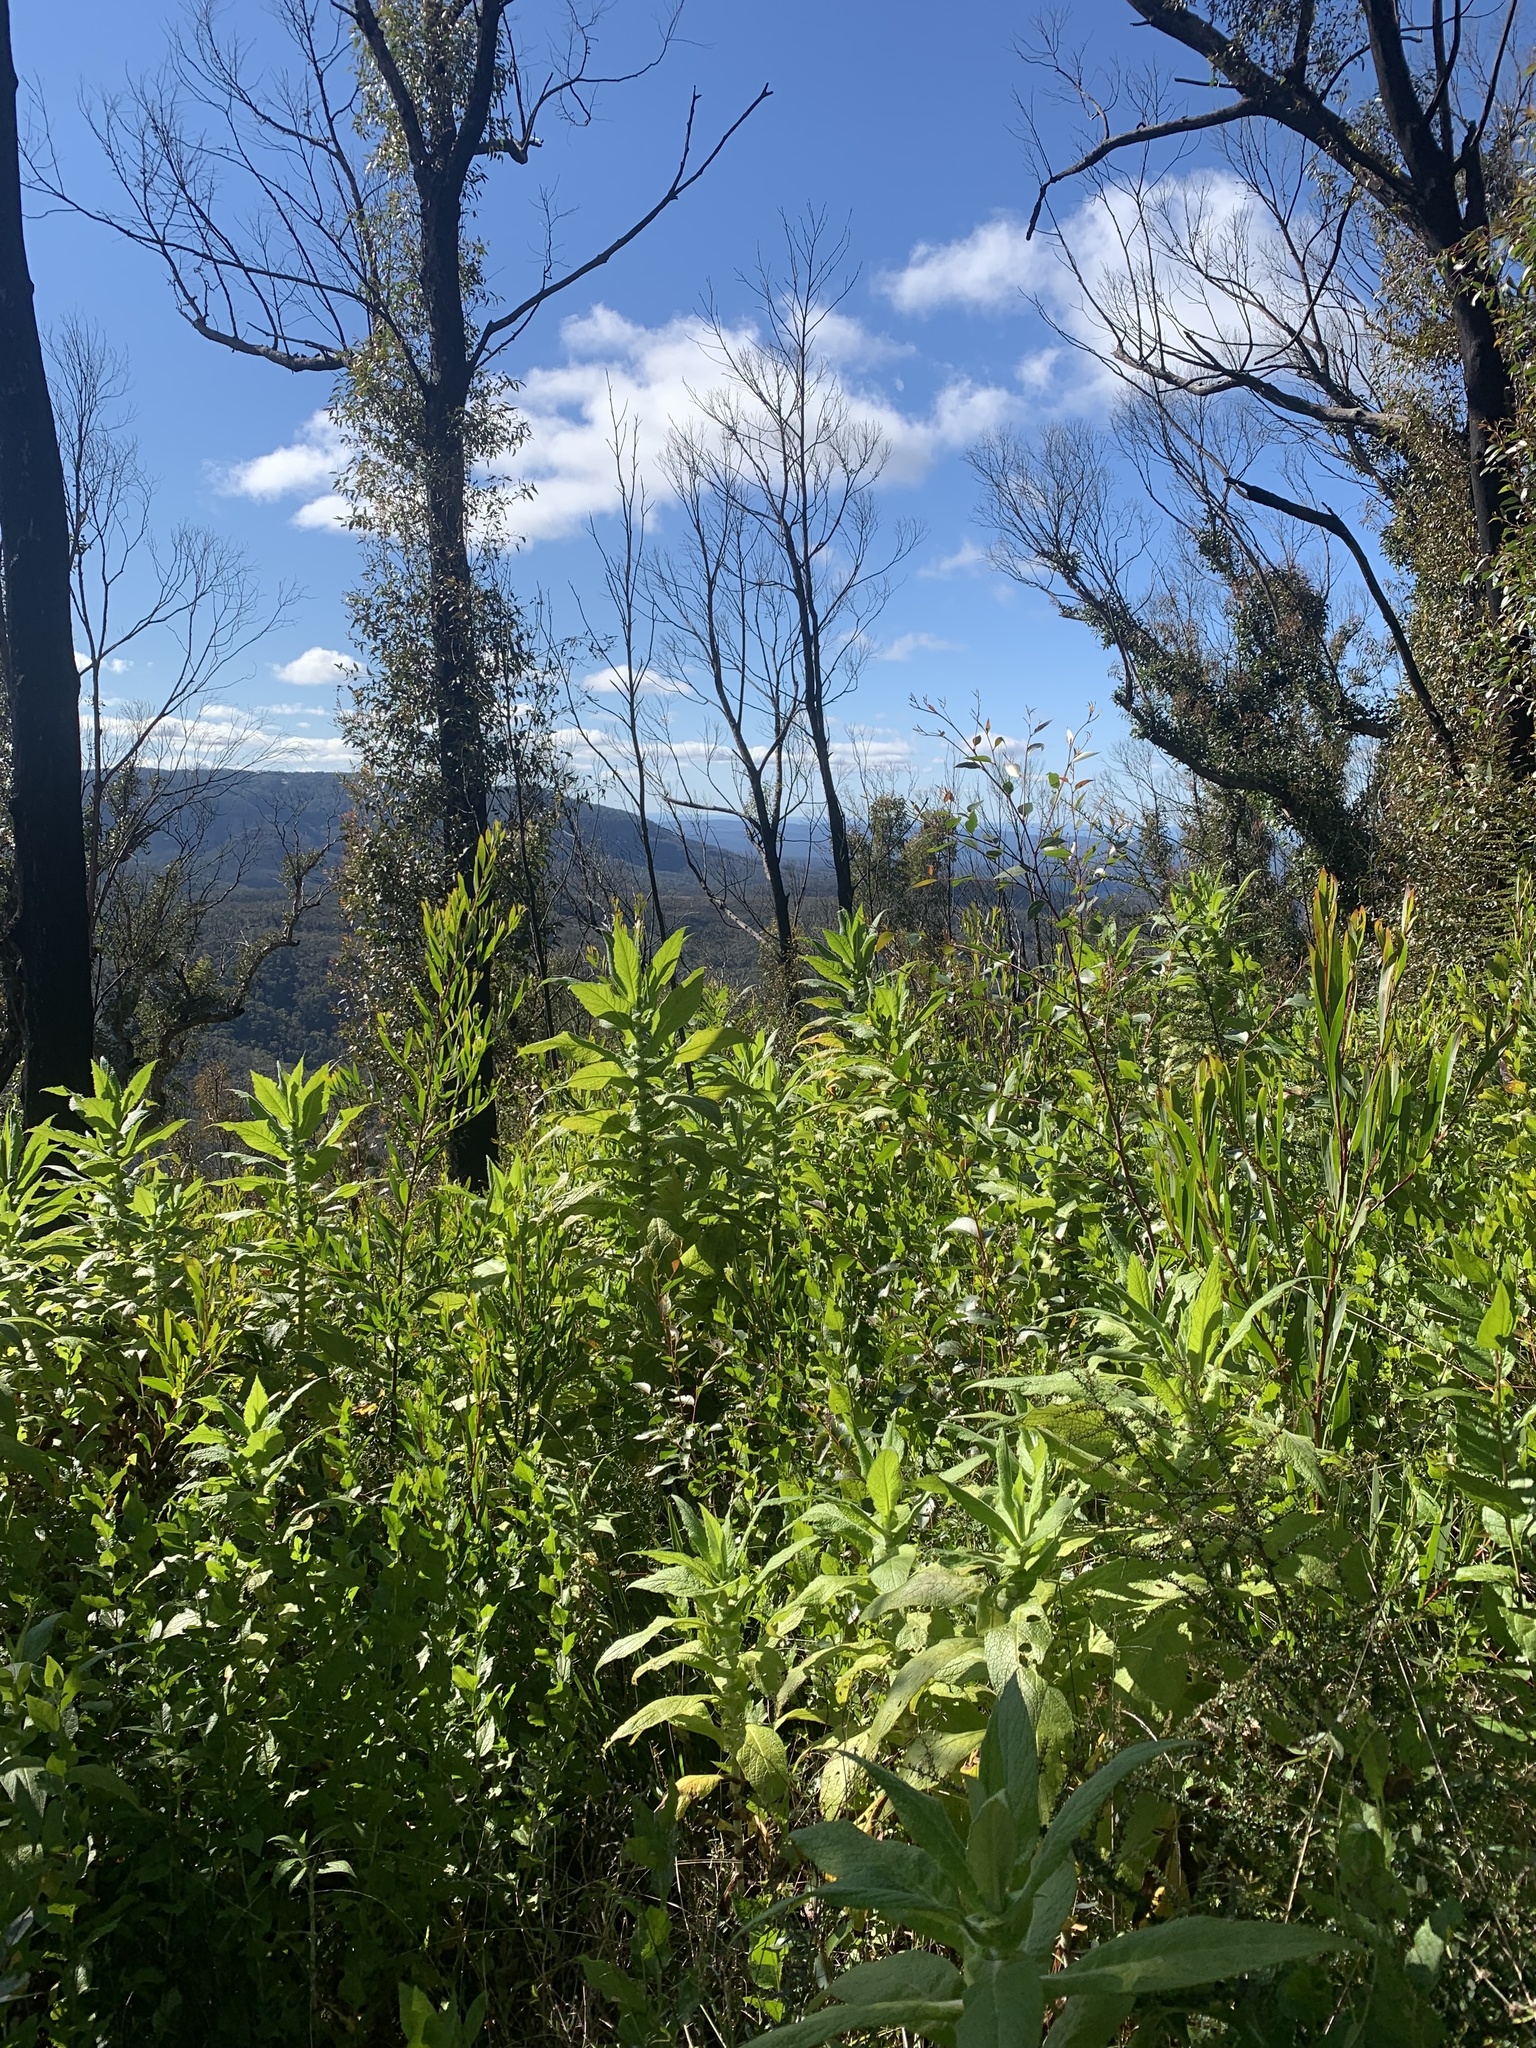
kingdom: Plantae
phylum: Tracheophyta
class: Magnoliopsida
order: Asterales
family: Asteraceae
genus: Calomeria
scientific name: Calomeria amaranthoides
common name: Incenseplant
